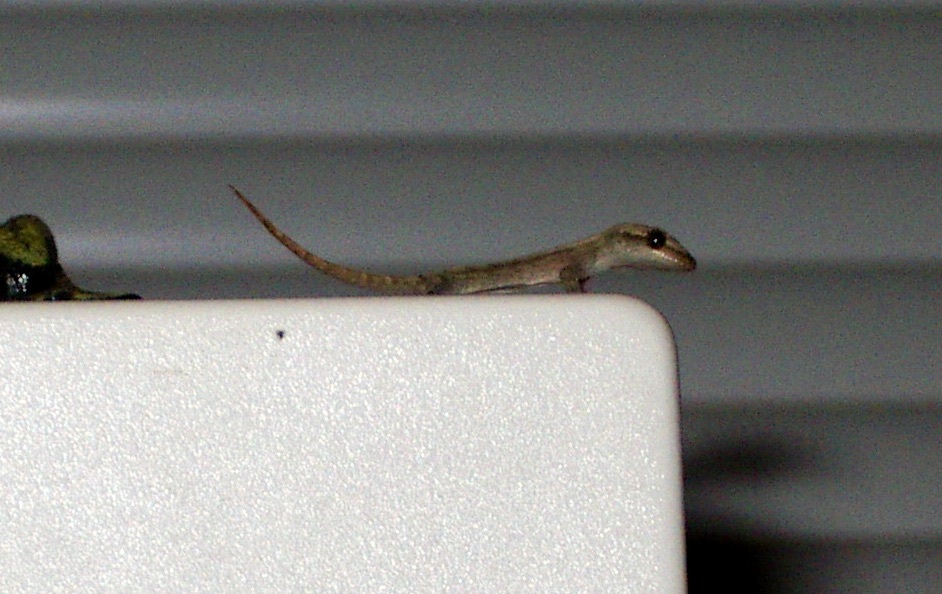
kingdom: Animalia
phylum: Chordata
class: Squamata
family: Gekkonidae
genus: Lepidodactylus
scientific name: Lepidodactylus lugubris
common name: Mourning gecko
